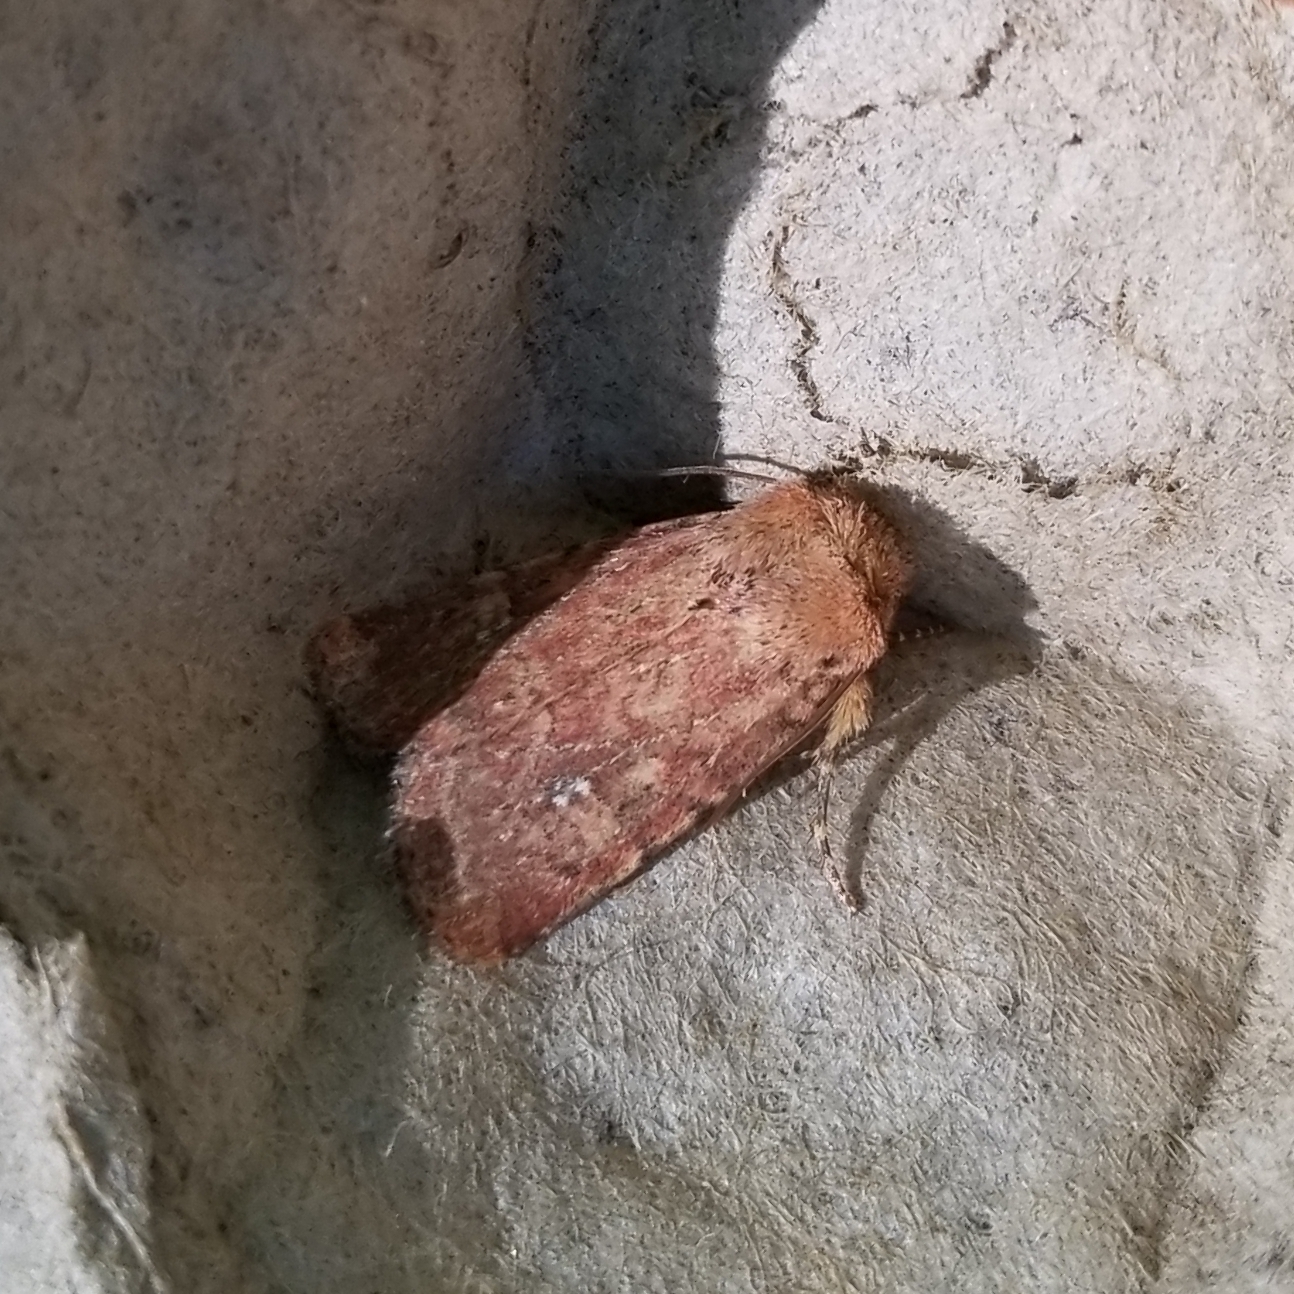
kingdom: Animalia
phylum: Arthropoda
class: Insecta
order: Lepidoptera
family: Noctuidae
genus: Homorthodes
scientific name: Homorthodes lindseyi
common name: Southern scurfy quaker
